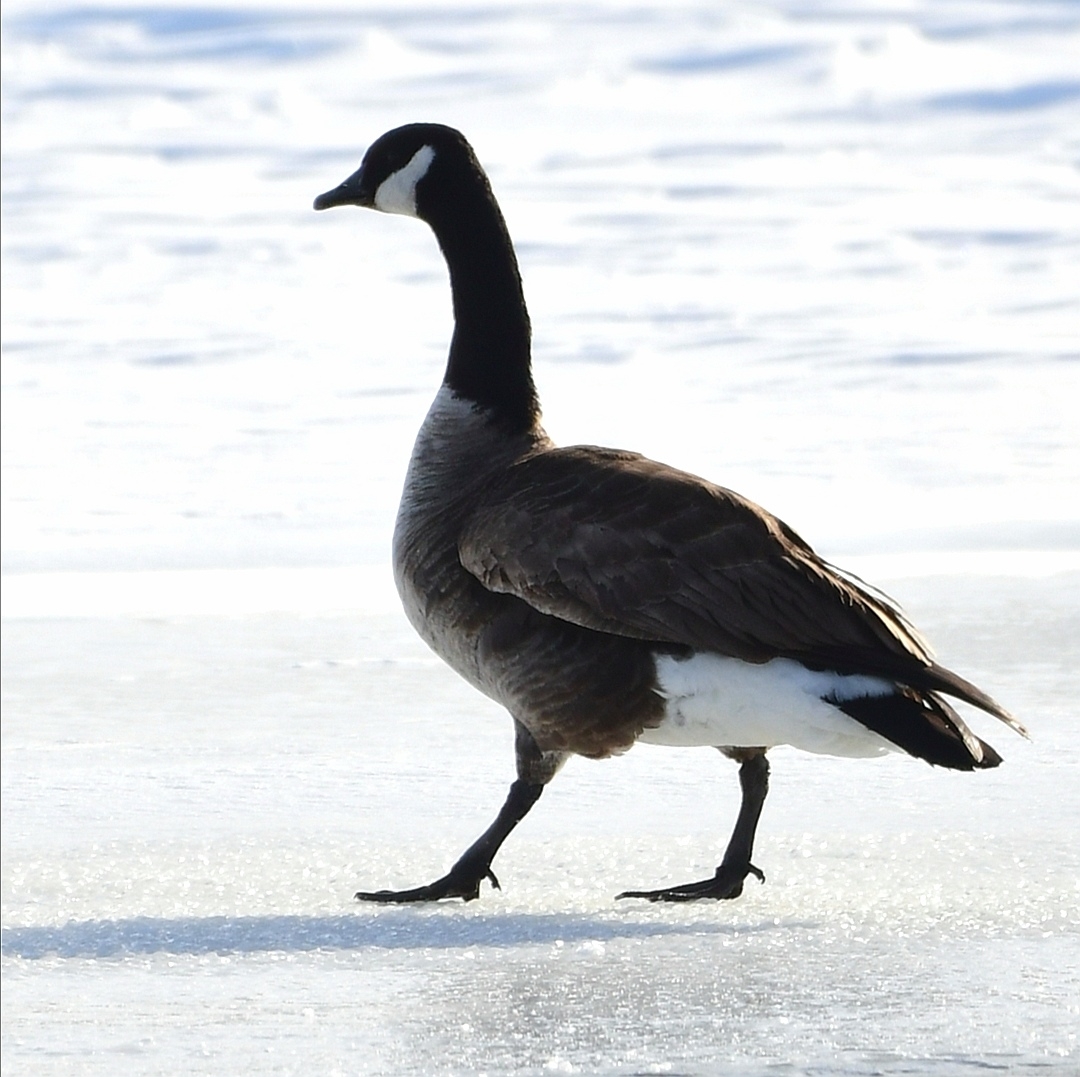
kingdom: Animalia
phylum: Chordata
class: Aves
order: Anseriformes
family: Anatidae
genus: Branta
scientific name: Branta canadensis
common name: Canada goose
